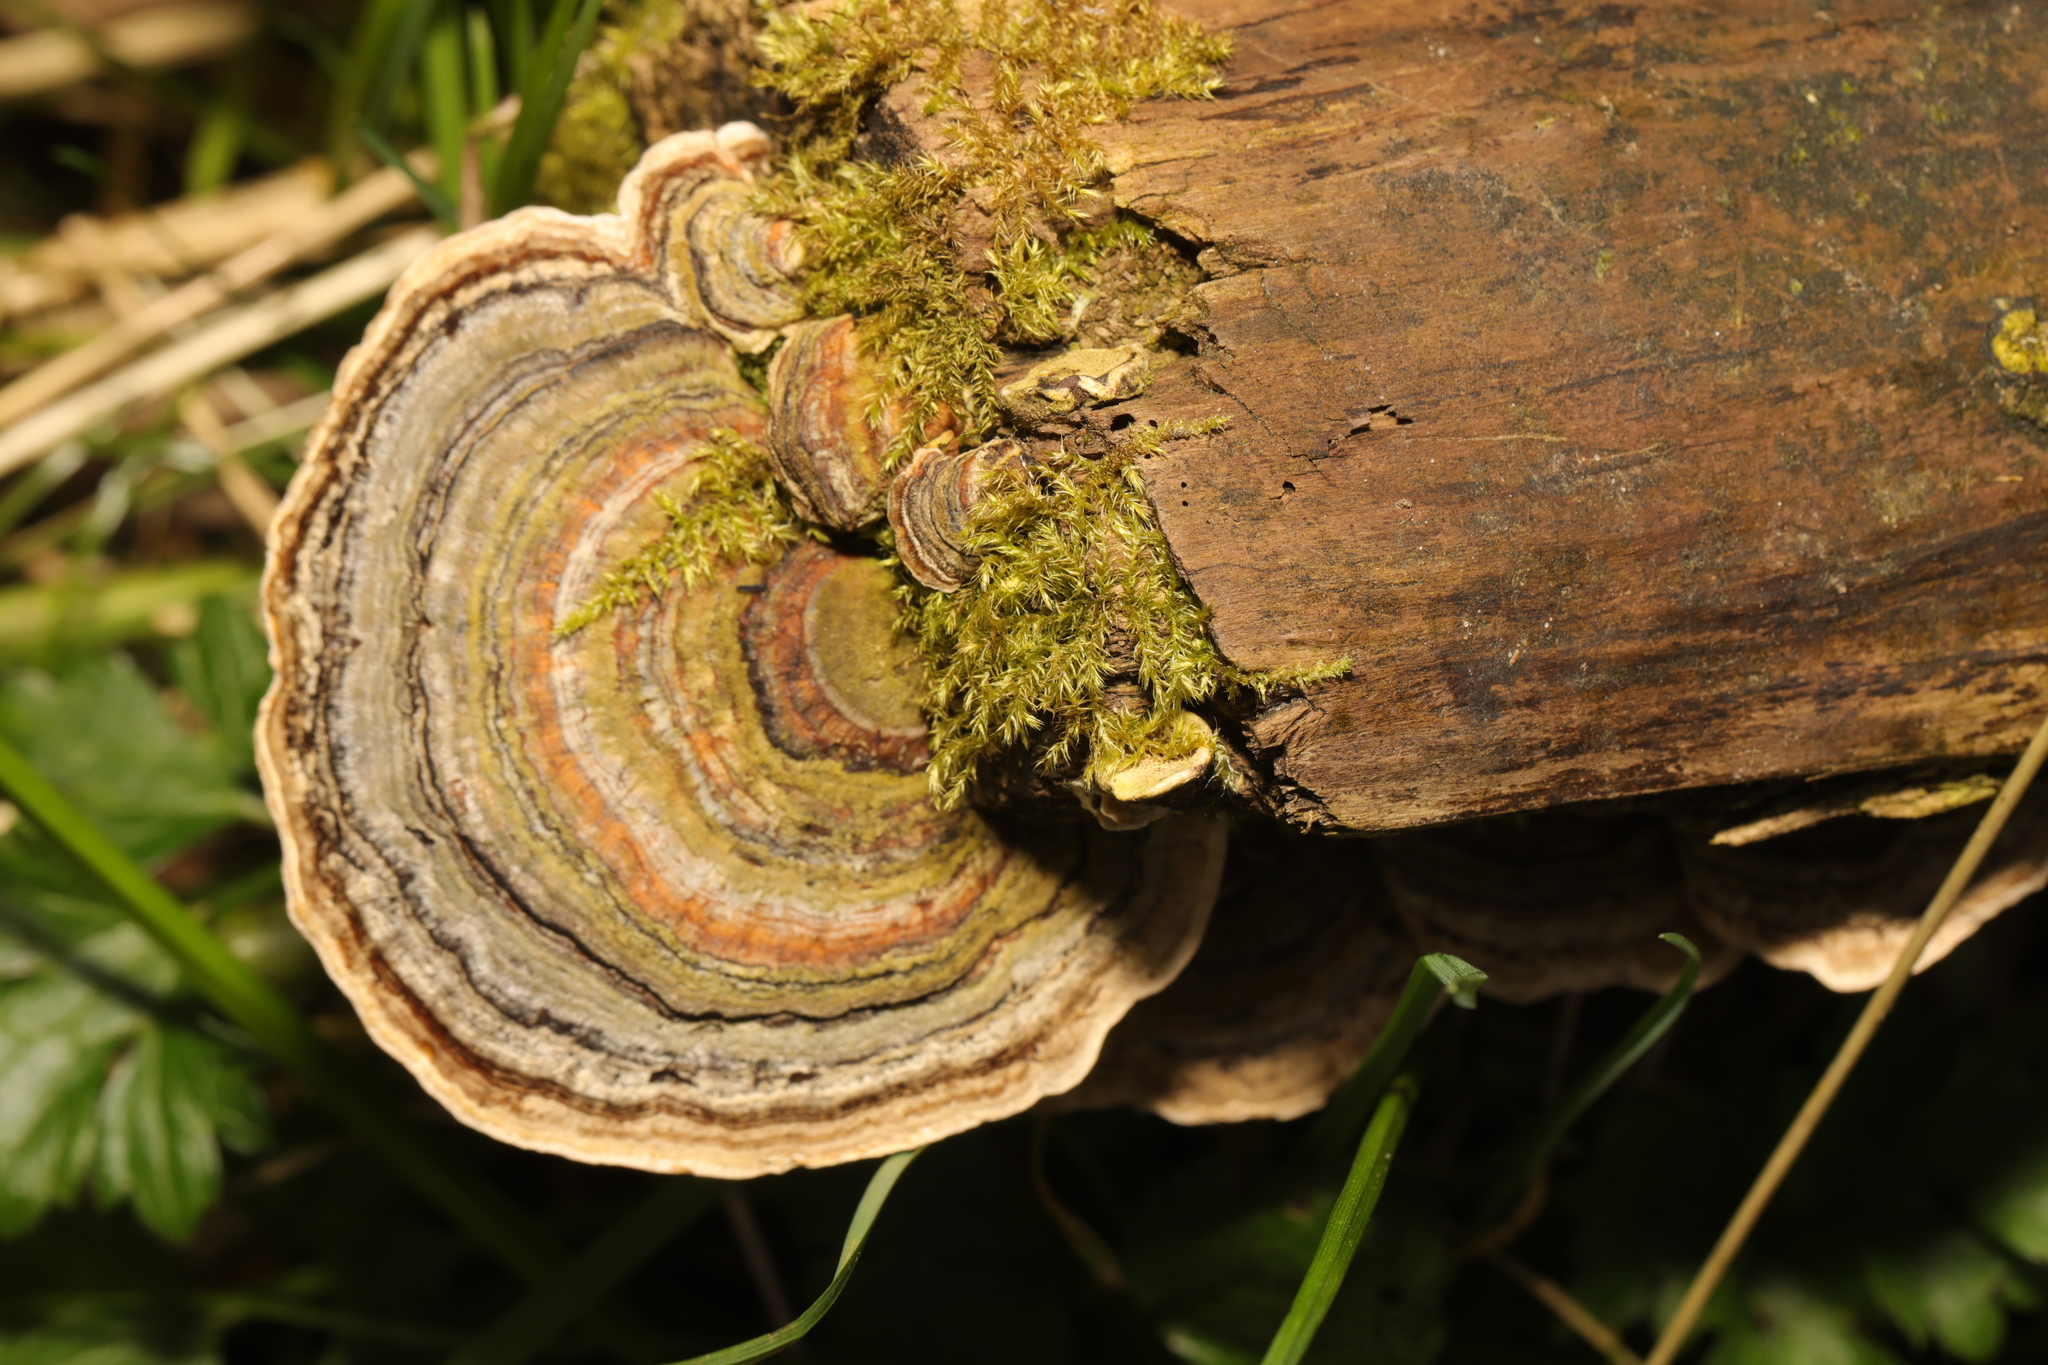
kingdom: Fungi
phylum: Basidiomycota
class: Agaricomycetes
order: Polyporales
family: Polyporaceae
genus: Trametes
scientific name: Trametes versicolor
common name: Turkeytail
